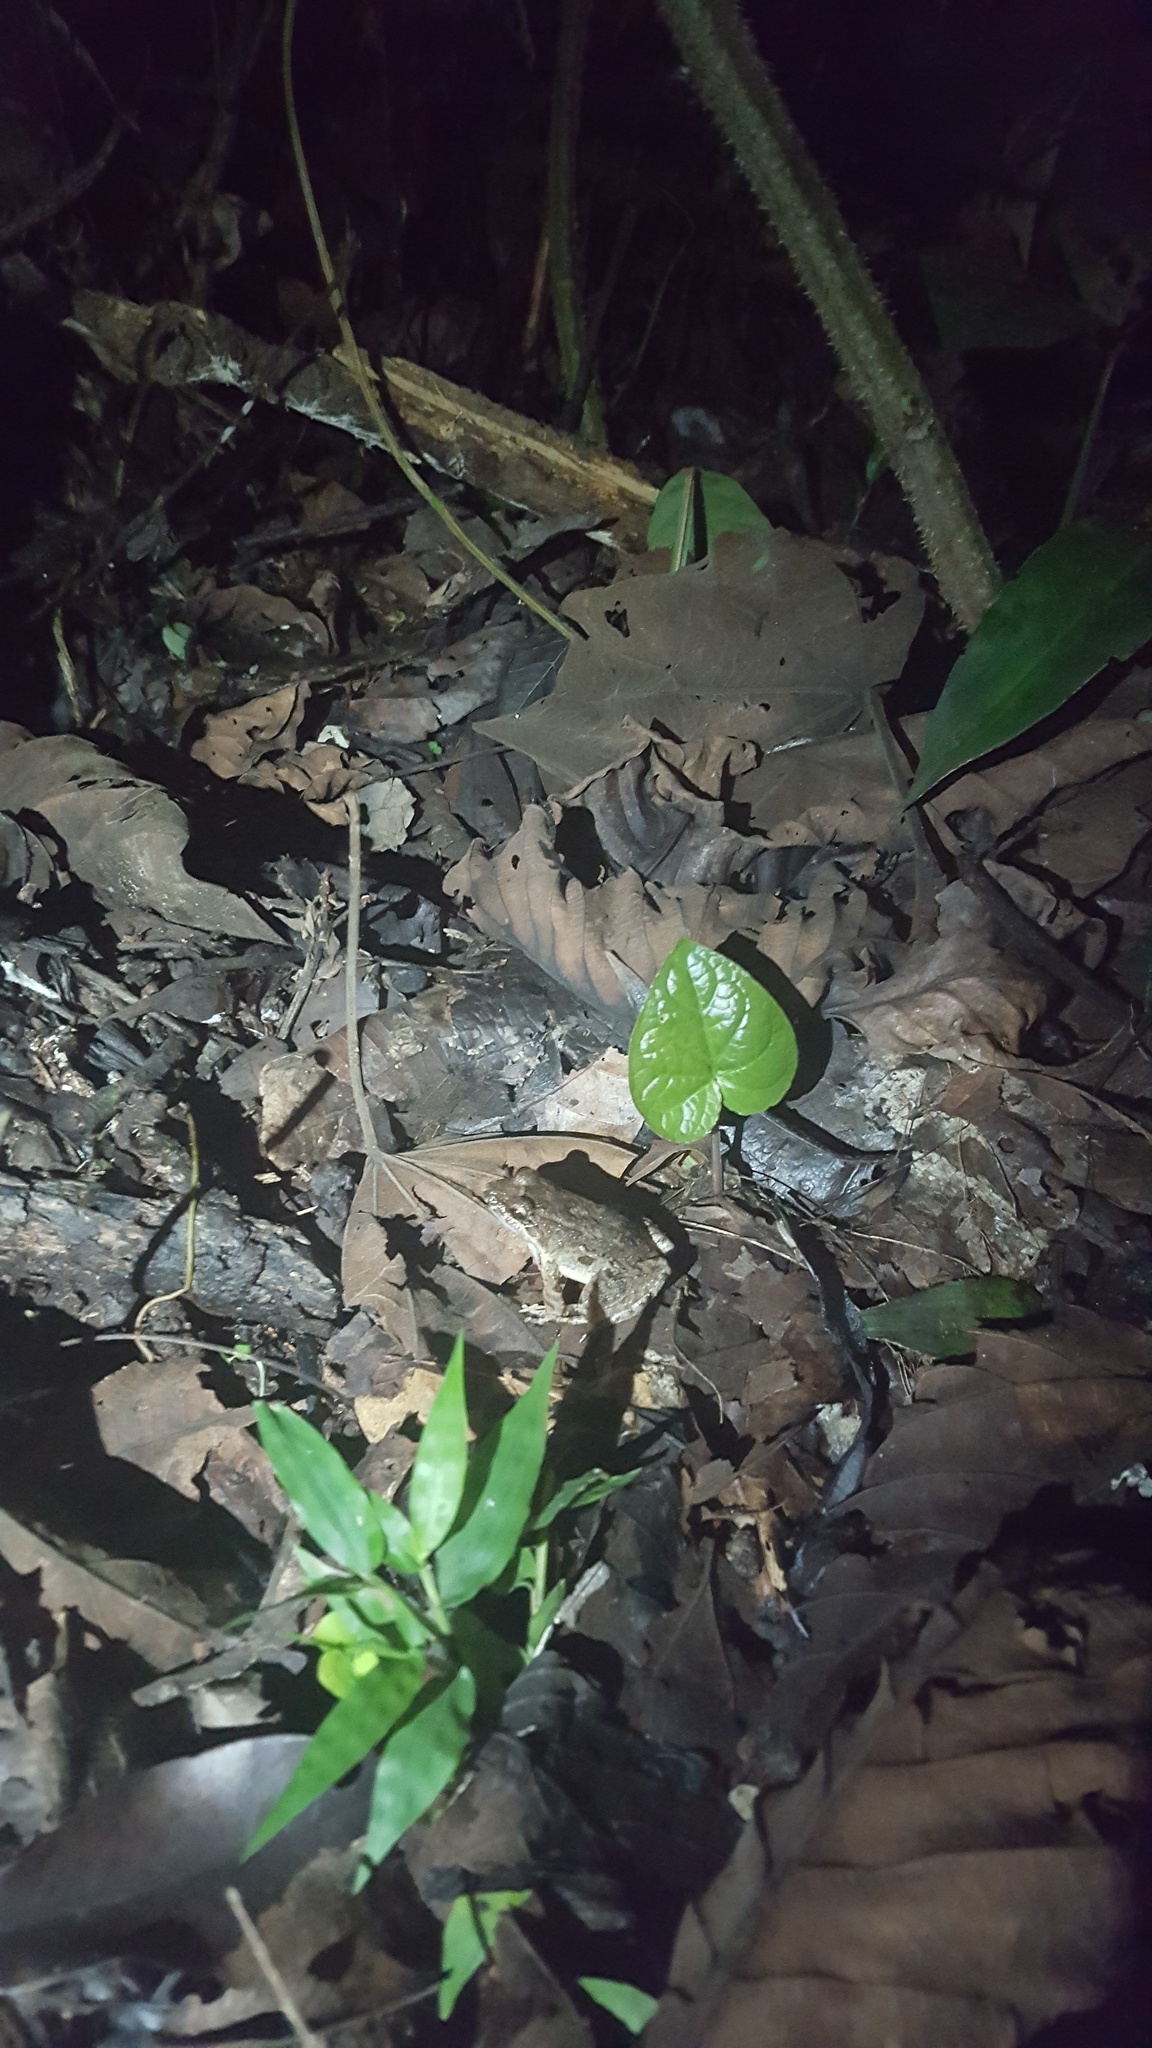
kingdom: Animalia
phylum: Chordata
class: Amphibia
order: Anura
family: Leptodactylidae
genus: Leptodactylus
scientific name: Leptodactylus leptodactyloides
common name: Common thin-toed frog
